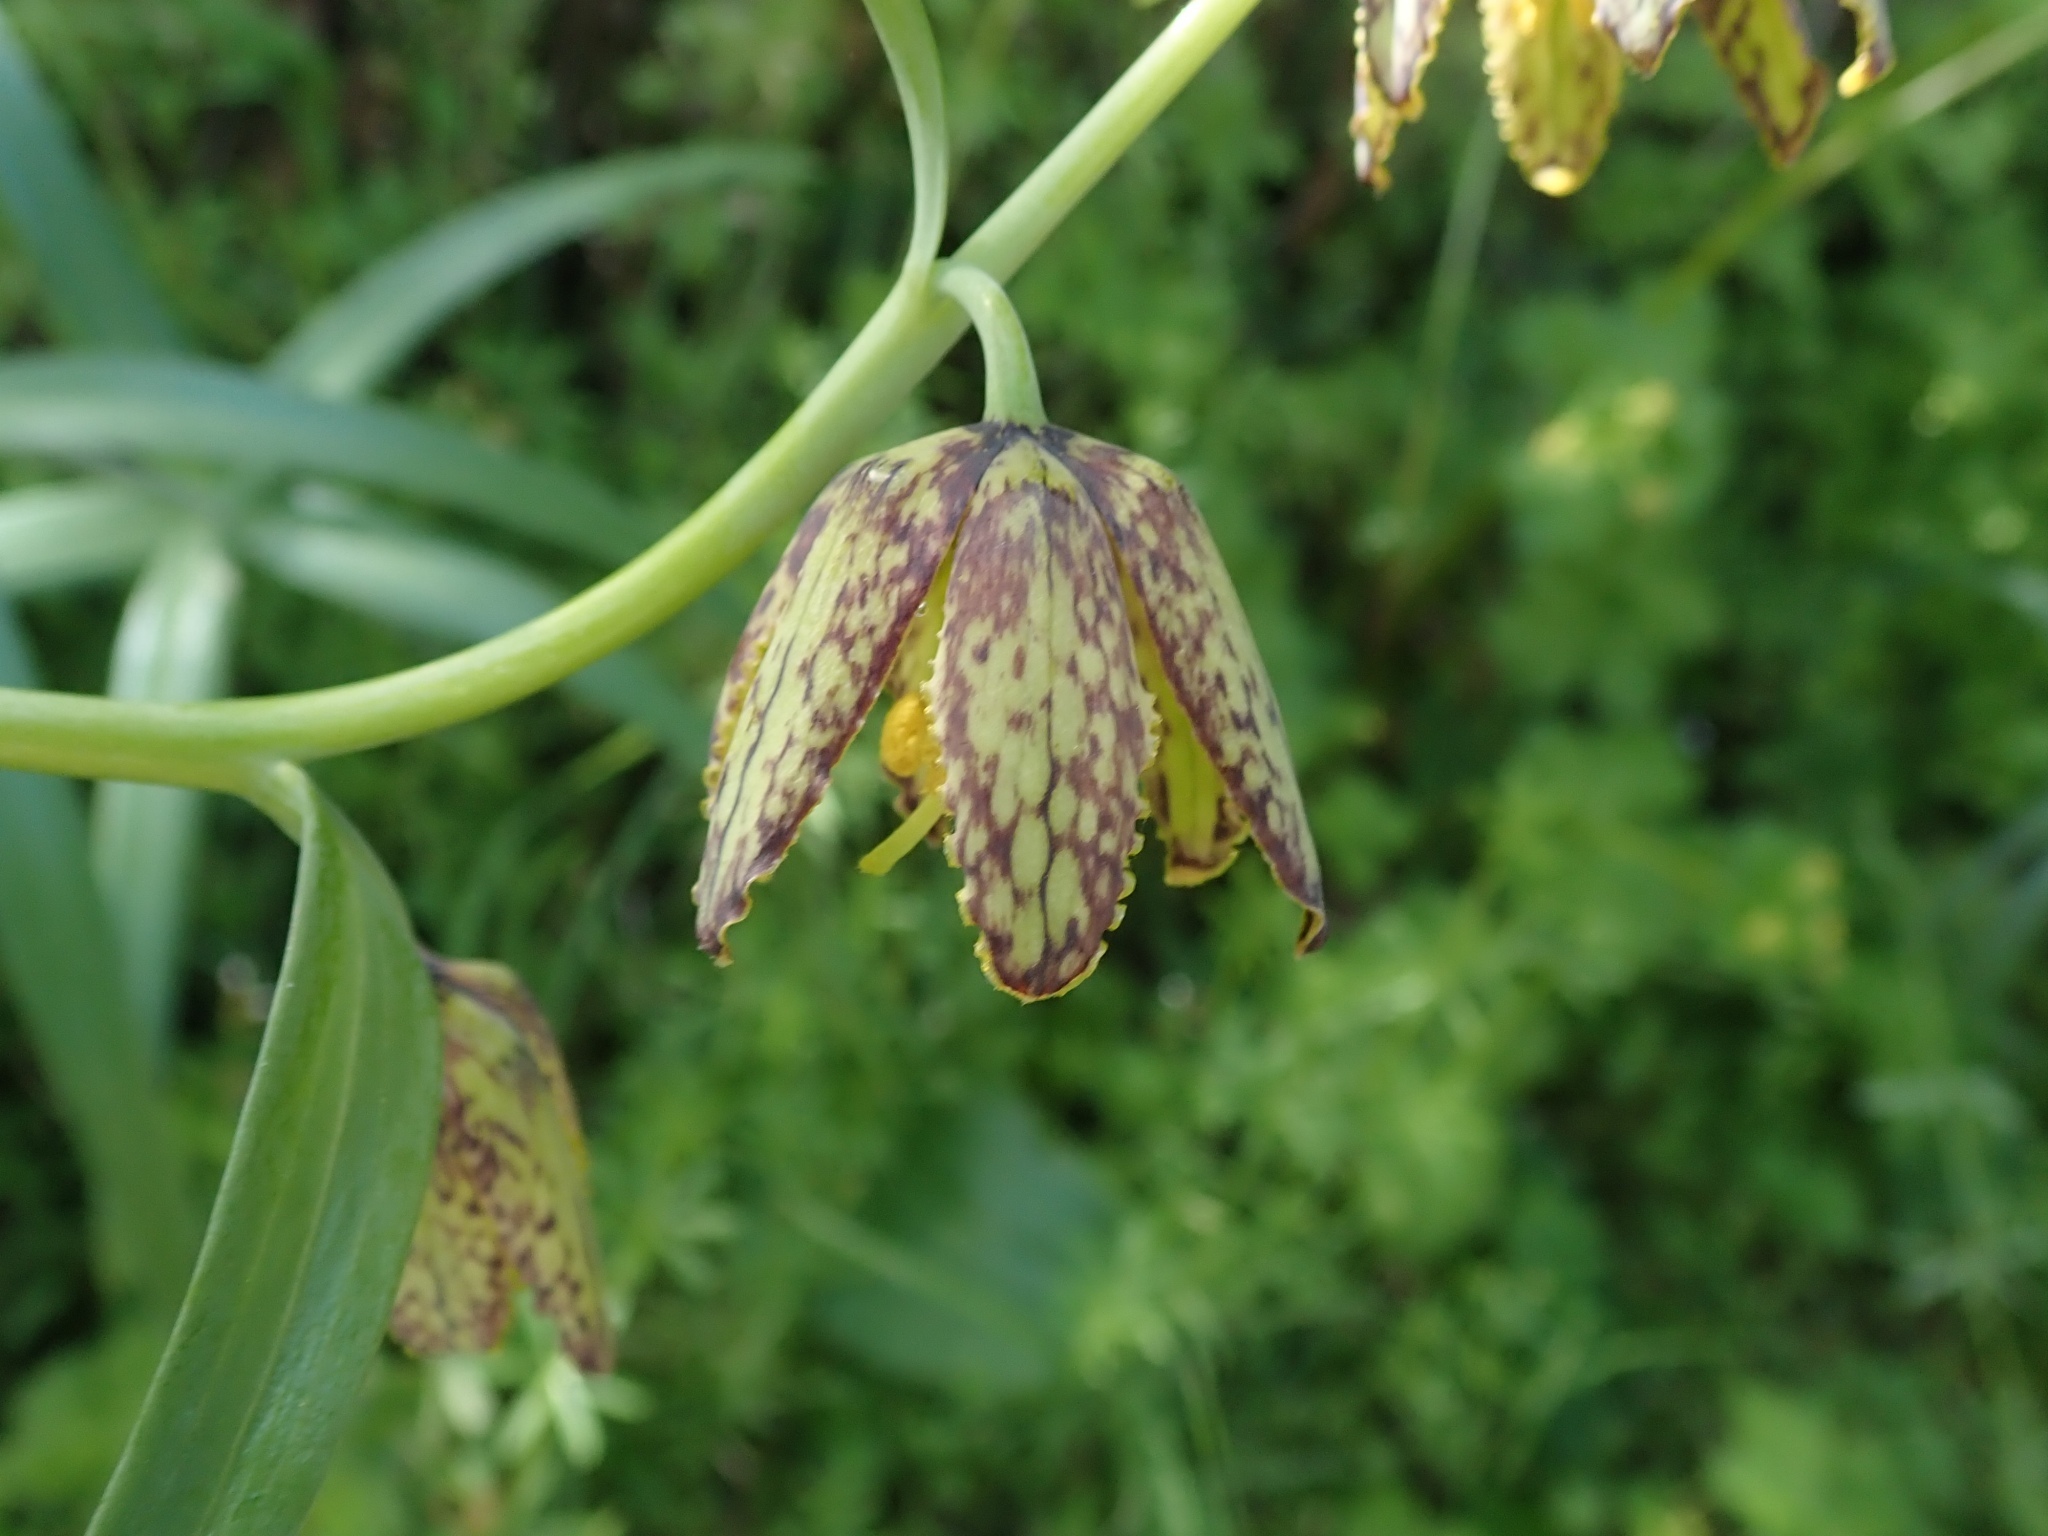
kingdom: Plantae
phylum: Tracheophyta
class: Liliopsida
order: Liliales
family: Liliaceae
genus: Fritillaria
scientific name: Fritillaria affinis
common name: Ojai fritillary
